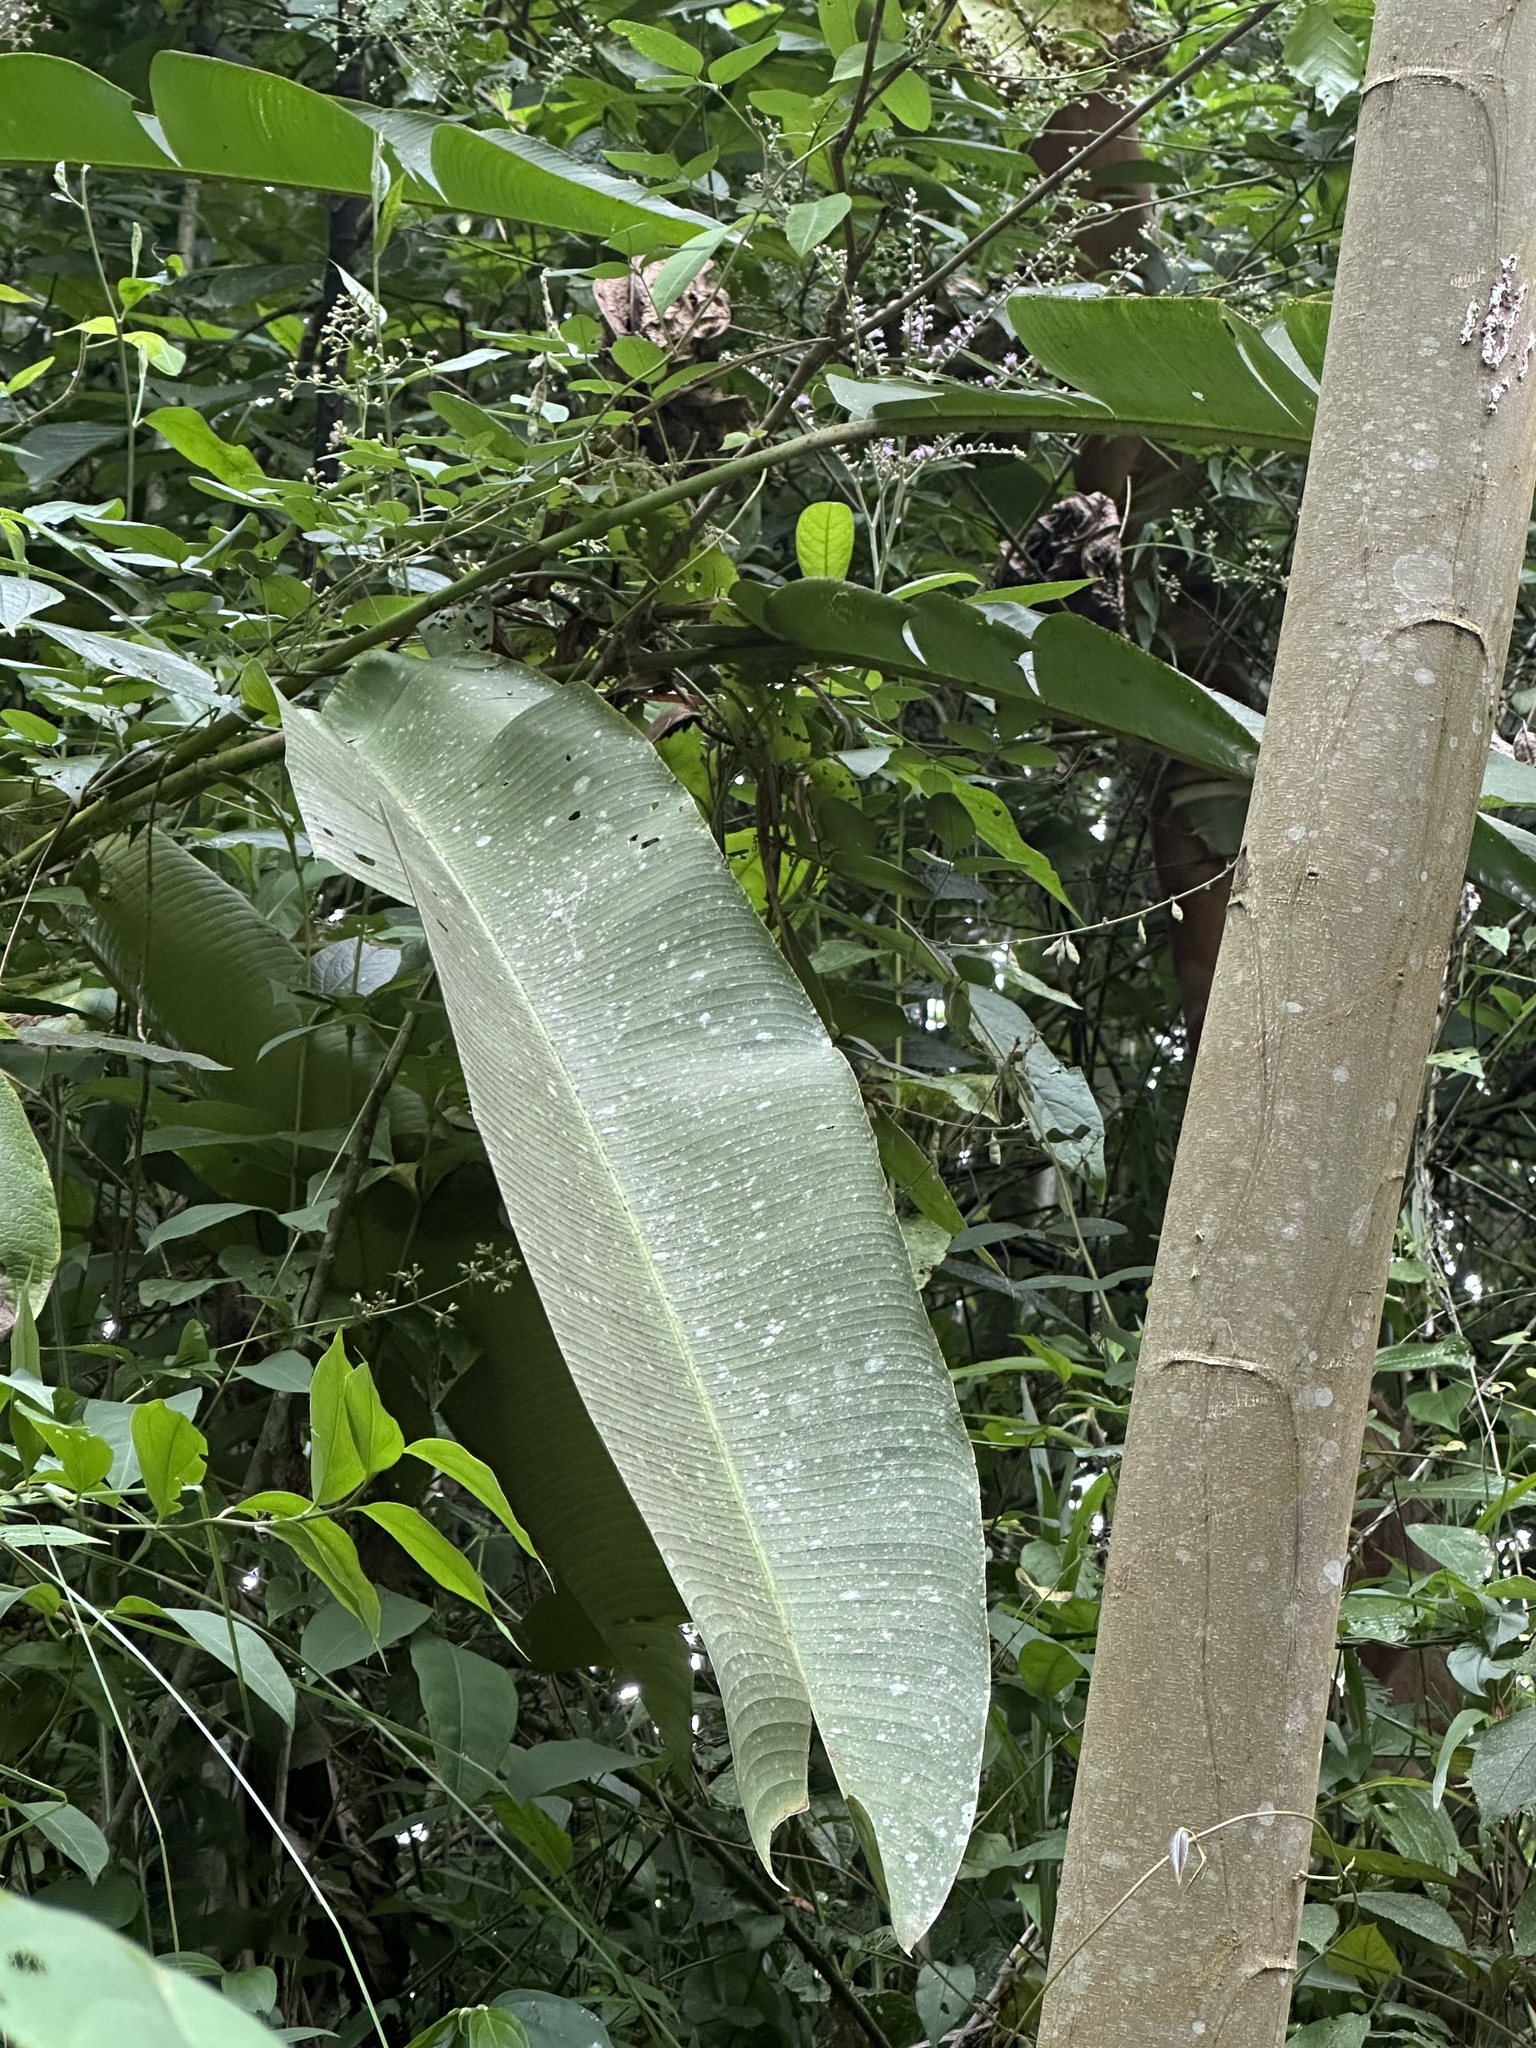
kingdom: Plantae
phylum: Tracheophyta
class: Liliopsida
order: Zingiberales
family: Heliconiaceae
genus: Heliconia
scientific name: Heliconia latispatha
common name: Expanded lobsterclaw
